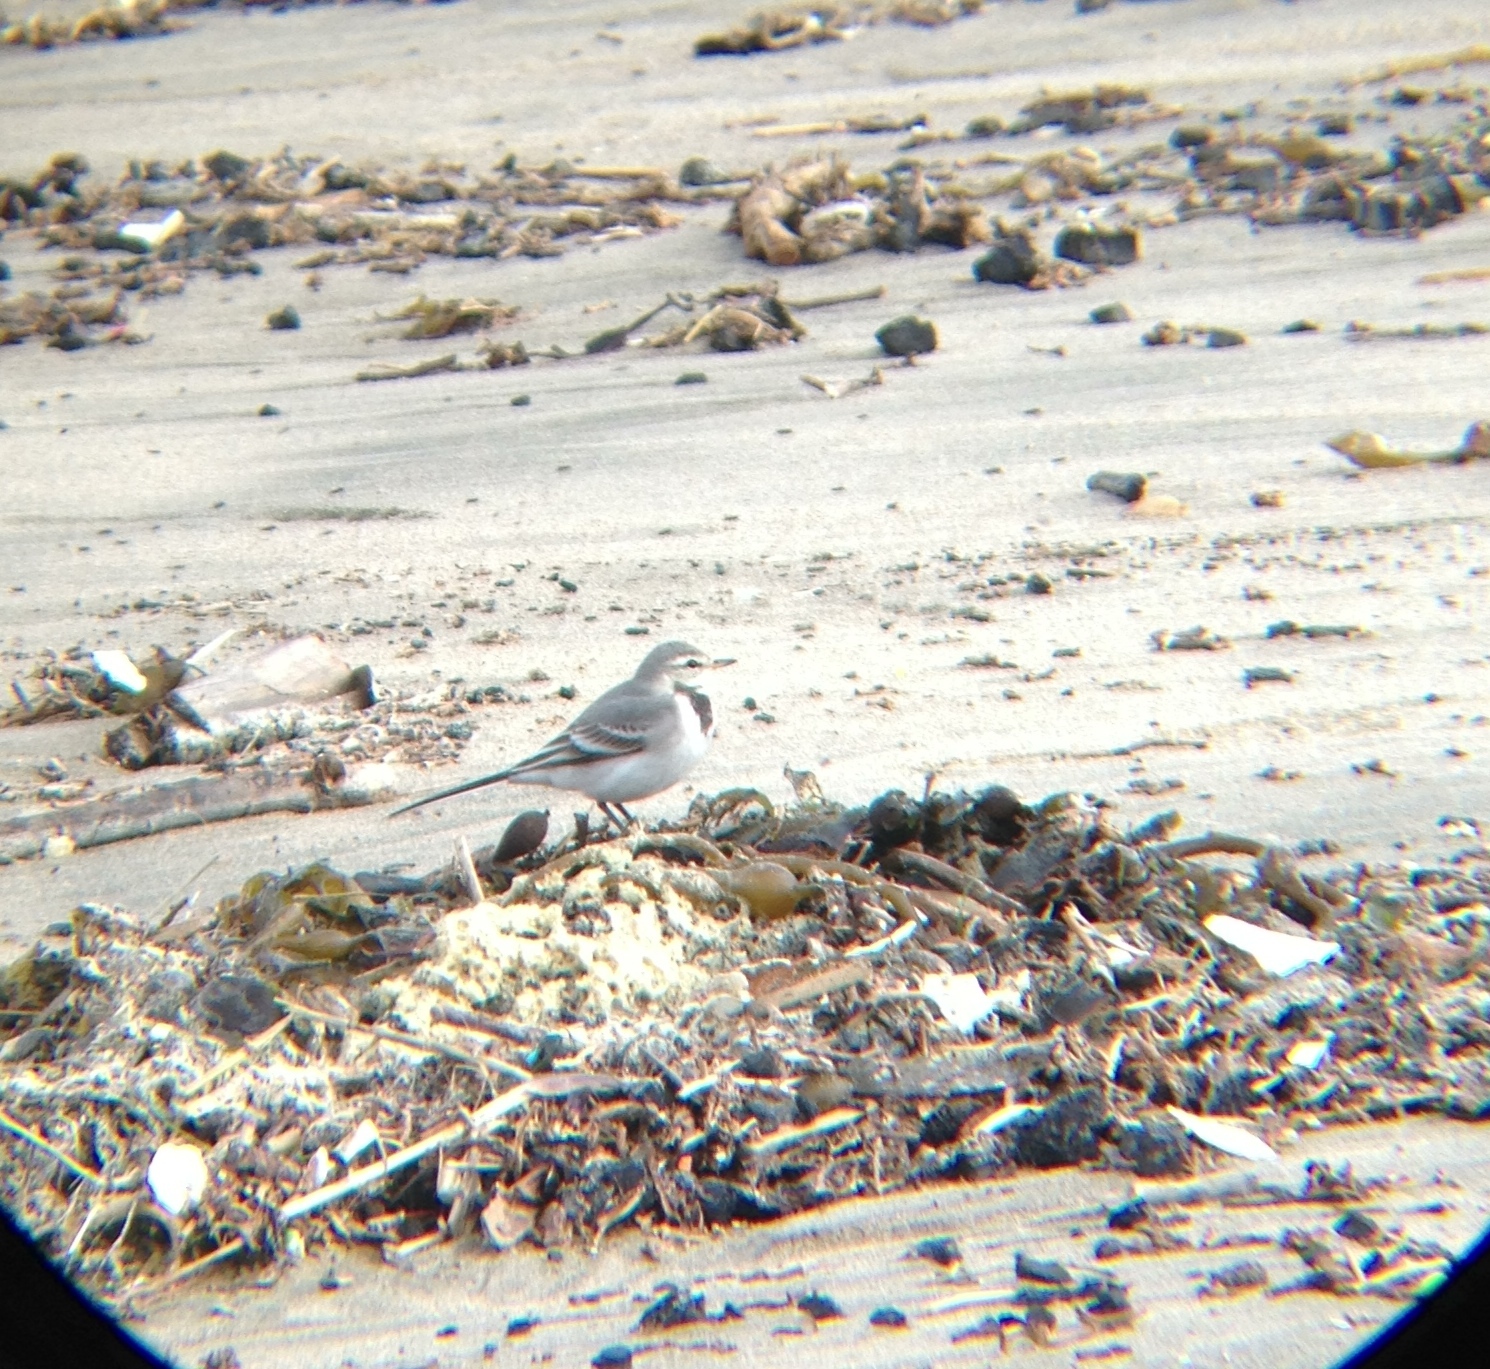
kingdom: Animalia
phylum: Chordata
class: Aves
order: Passeriformes
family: Motacillidae
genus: Motacilla
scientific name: Motacilla alba
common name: White wagtail
